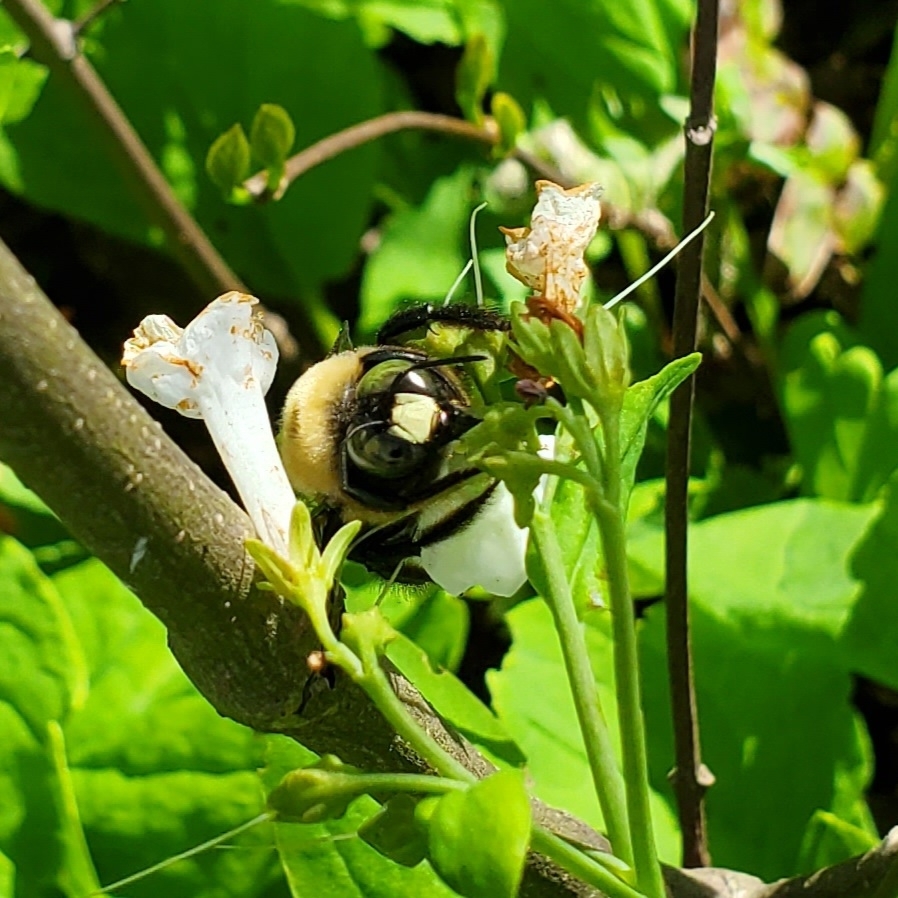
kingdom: Animalia
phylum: Arthropoda
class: Insecta
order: Hymenoptera
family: Apidae
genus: Xylocopa
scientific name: Xylocopa virginica
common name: Carpenter bee
